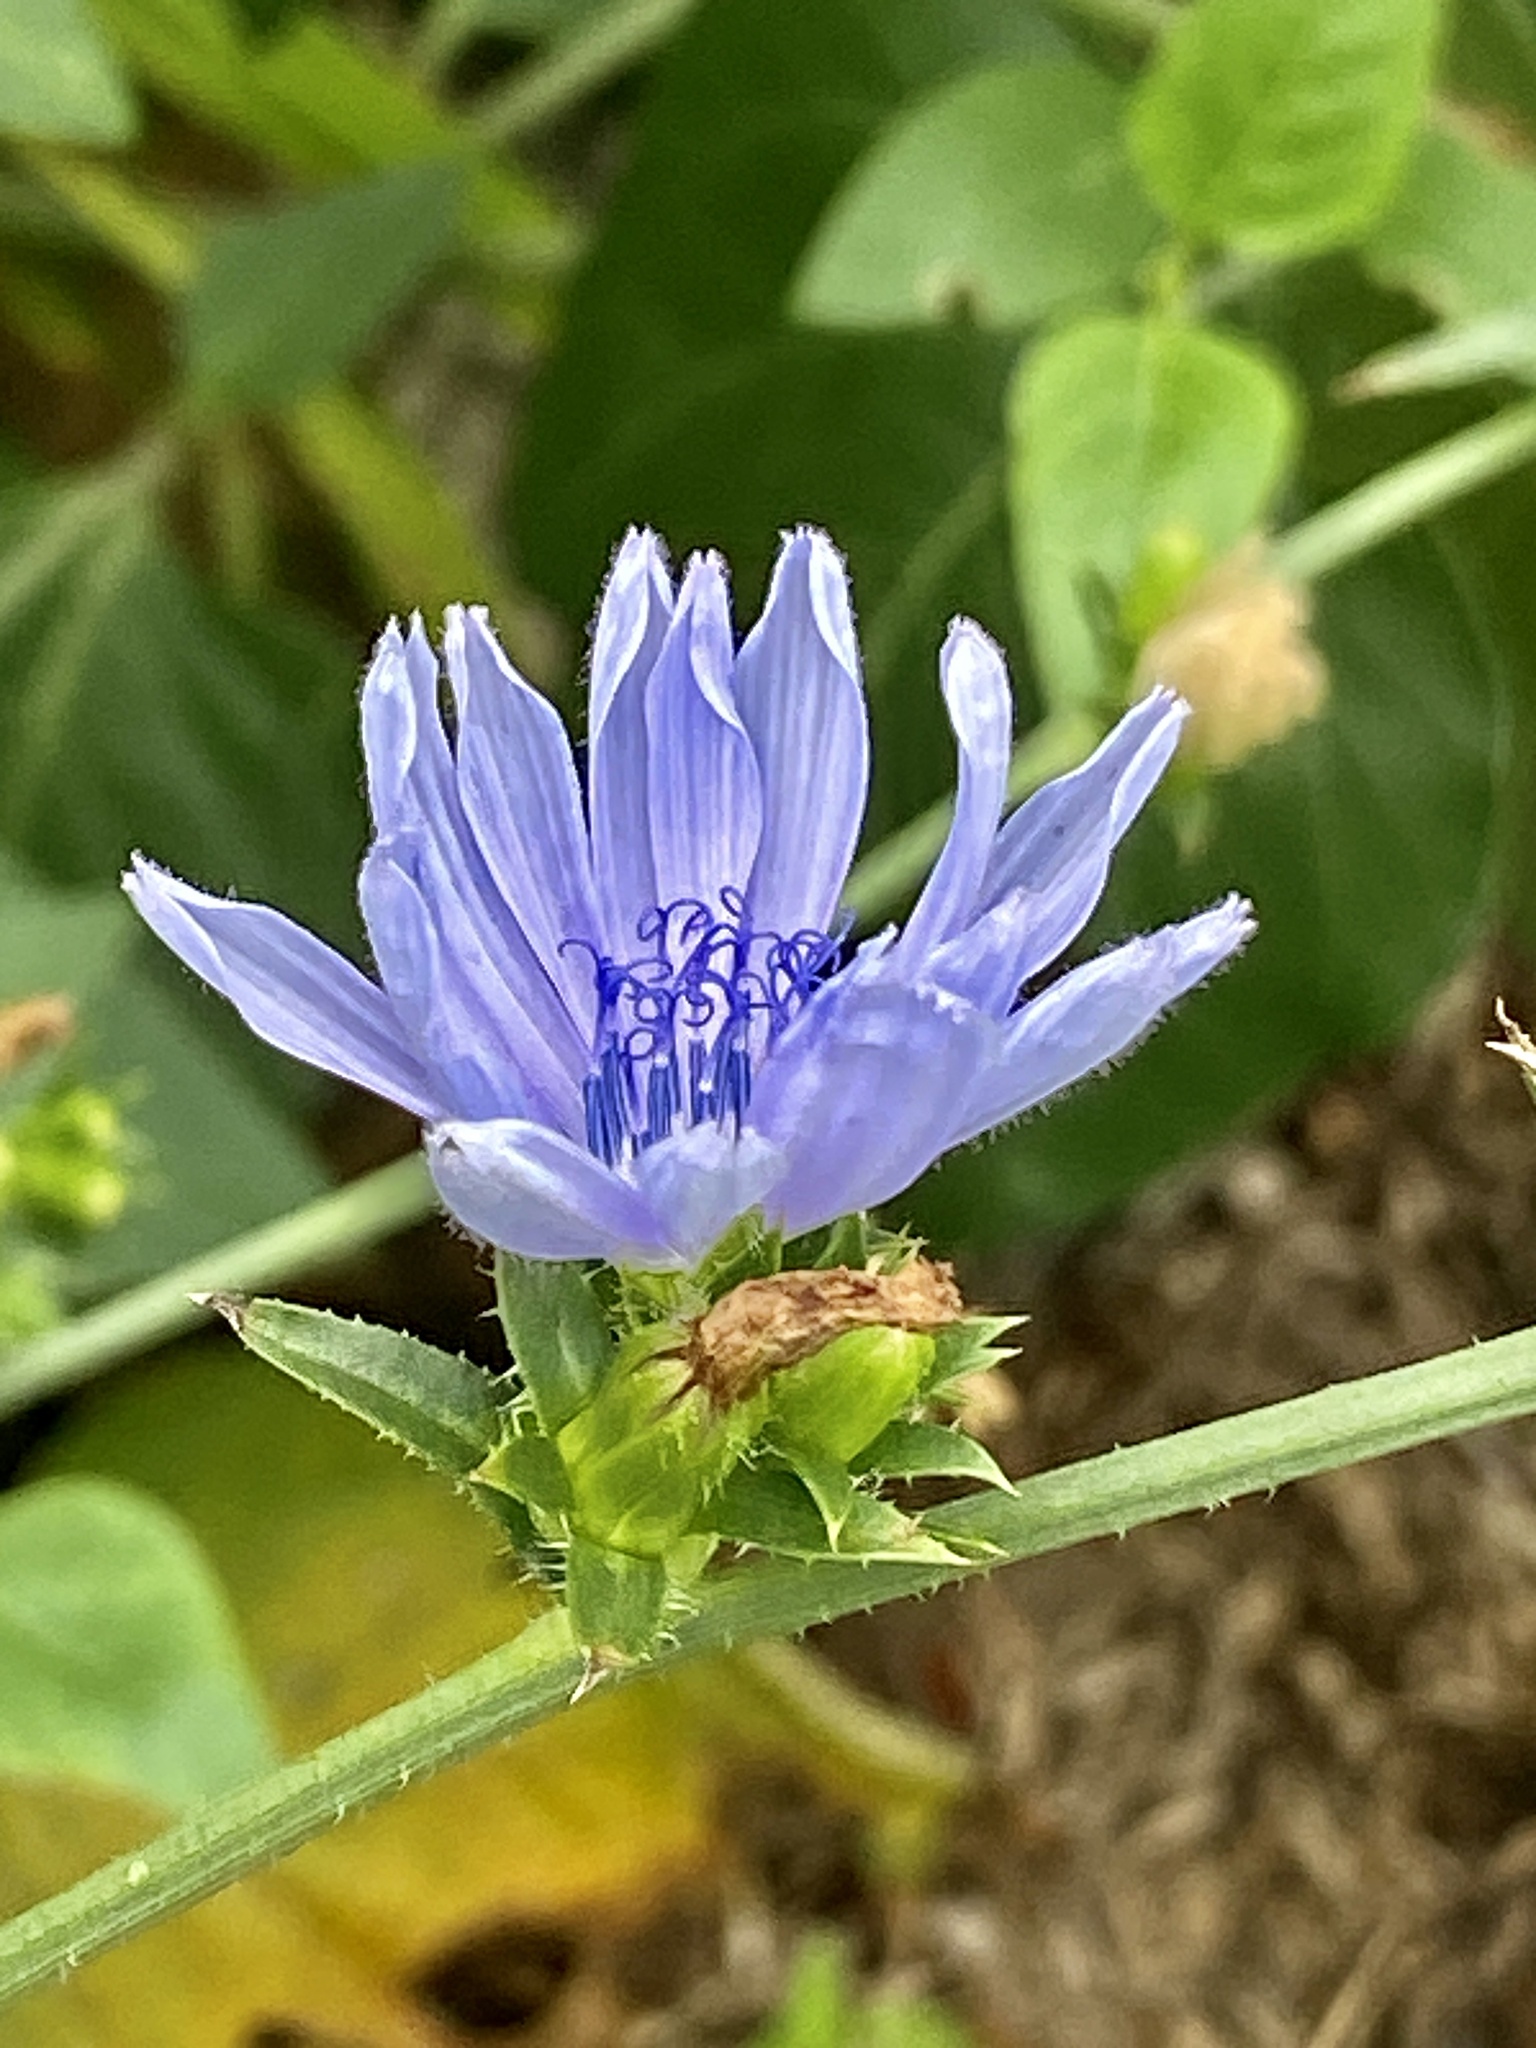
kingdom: Plantae
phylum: Tracheophyta
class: Magnoliopsida
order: Asterales
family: Asteraceae
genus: Cichorium
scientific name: Cichorium intybus
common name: Chicory
